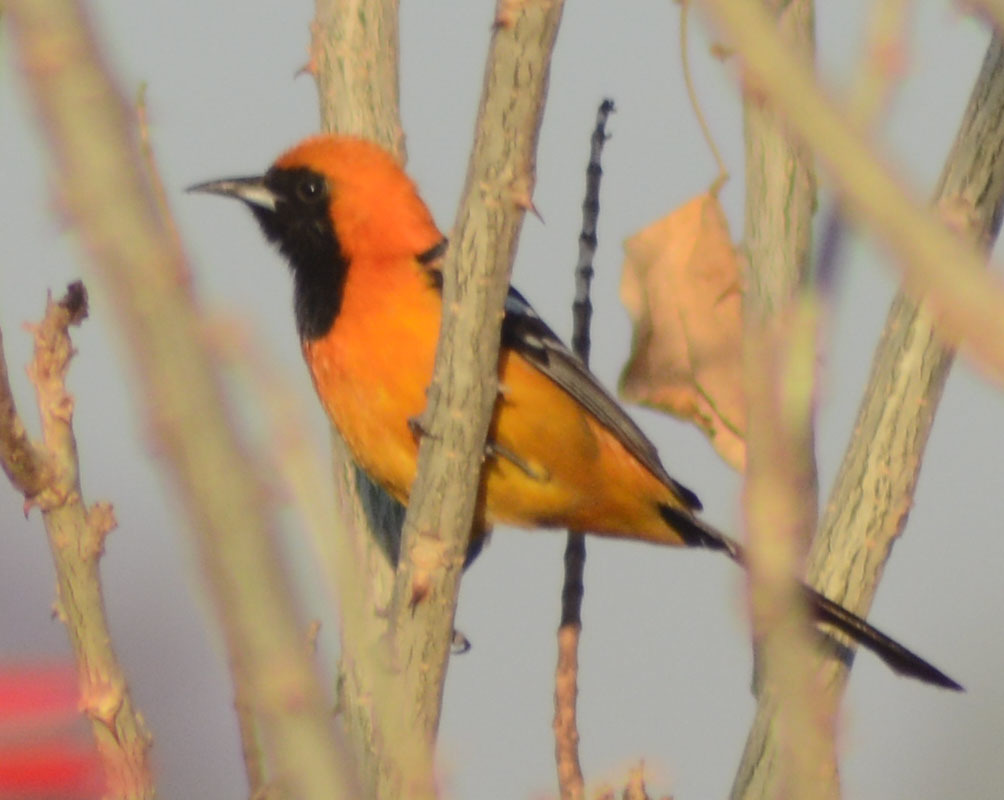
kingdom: Animalia
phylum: Chordata
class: Aves
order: Passeriformes
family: Icteridae
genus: Icterus
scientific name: Icterus cucullatus
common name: Hooded oriole
